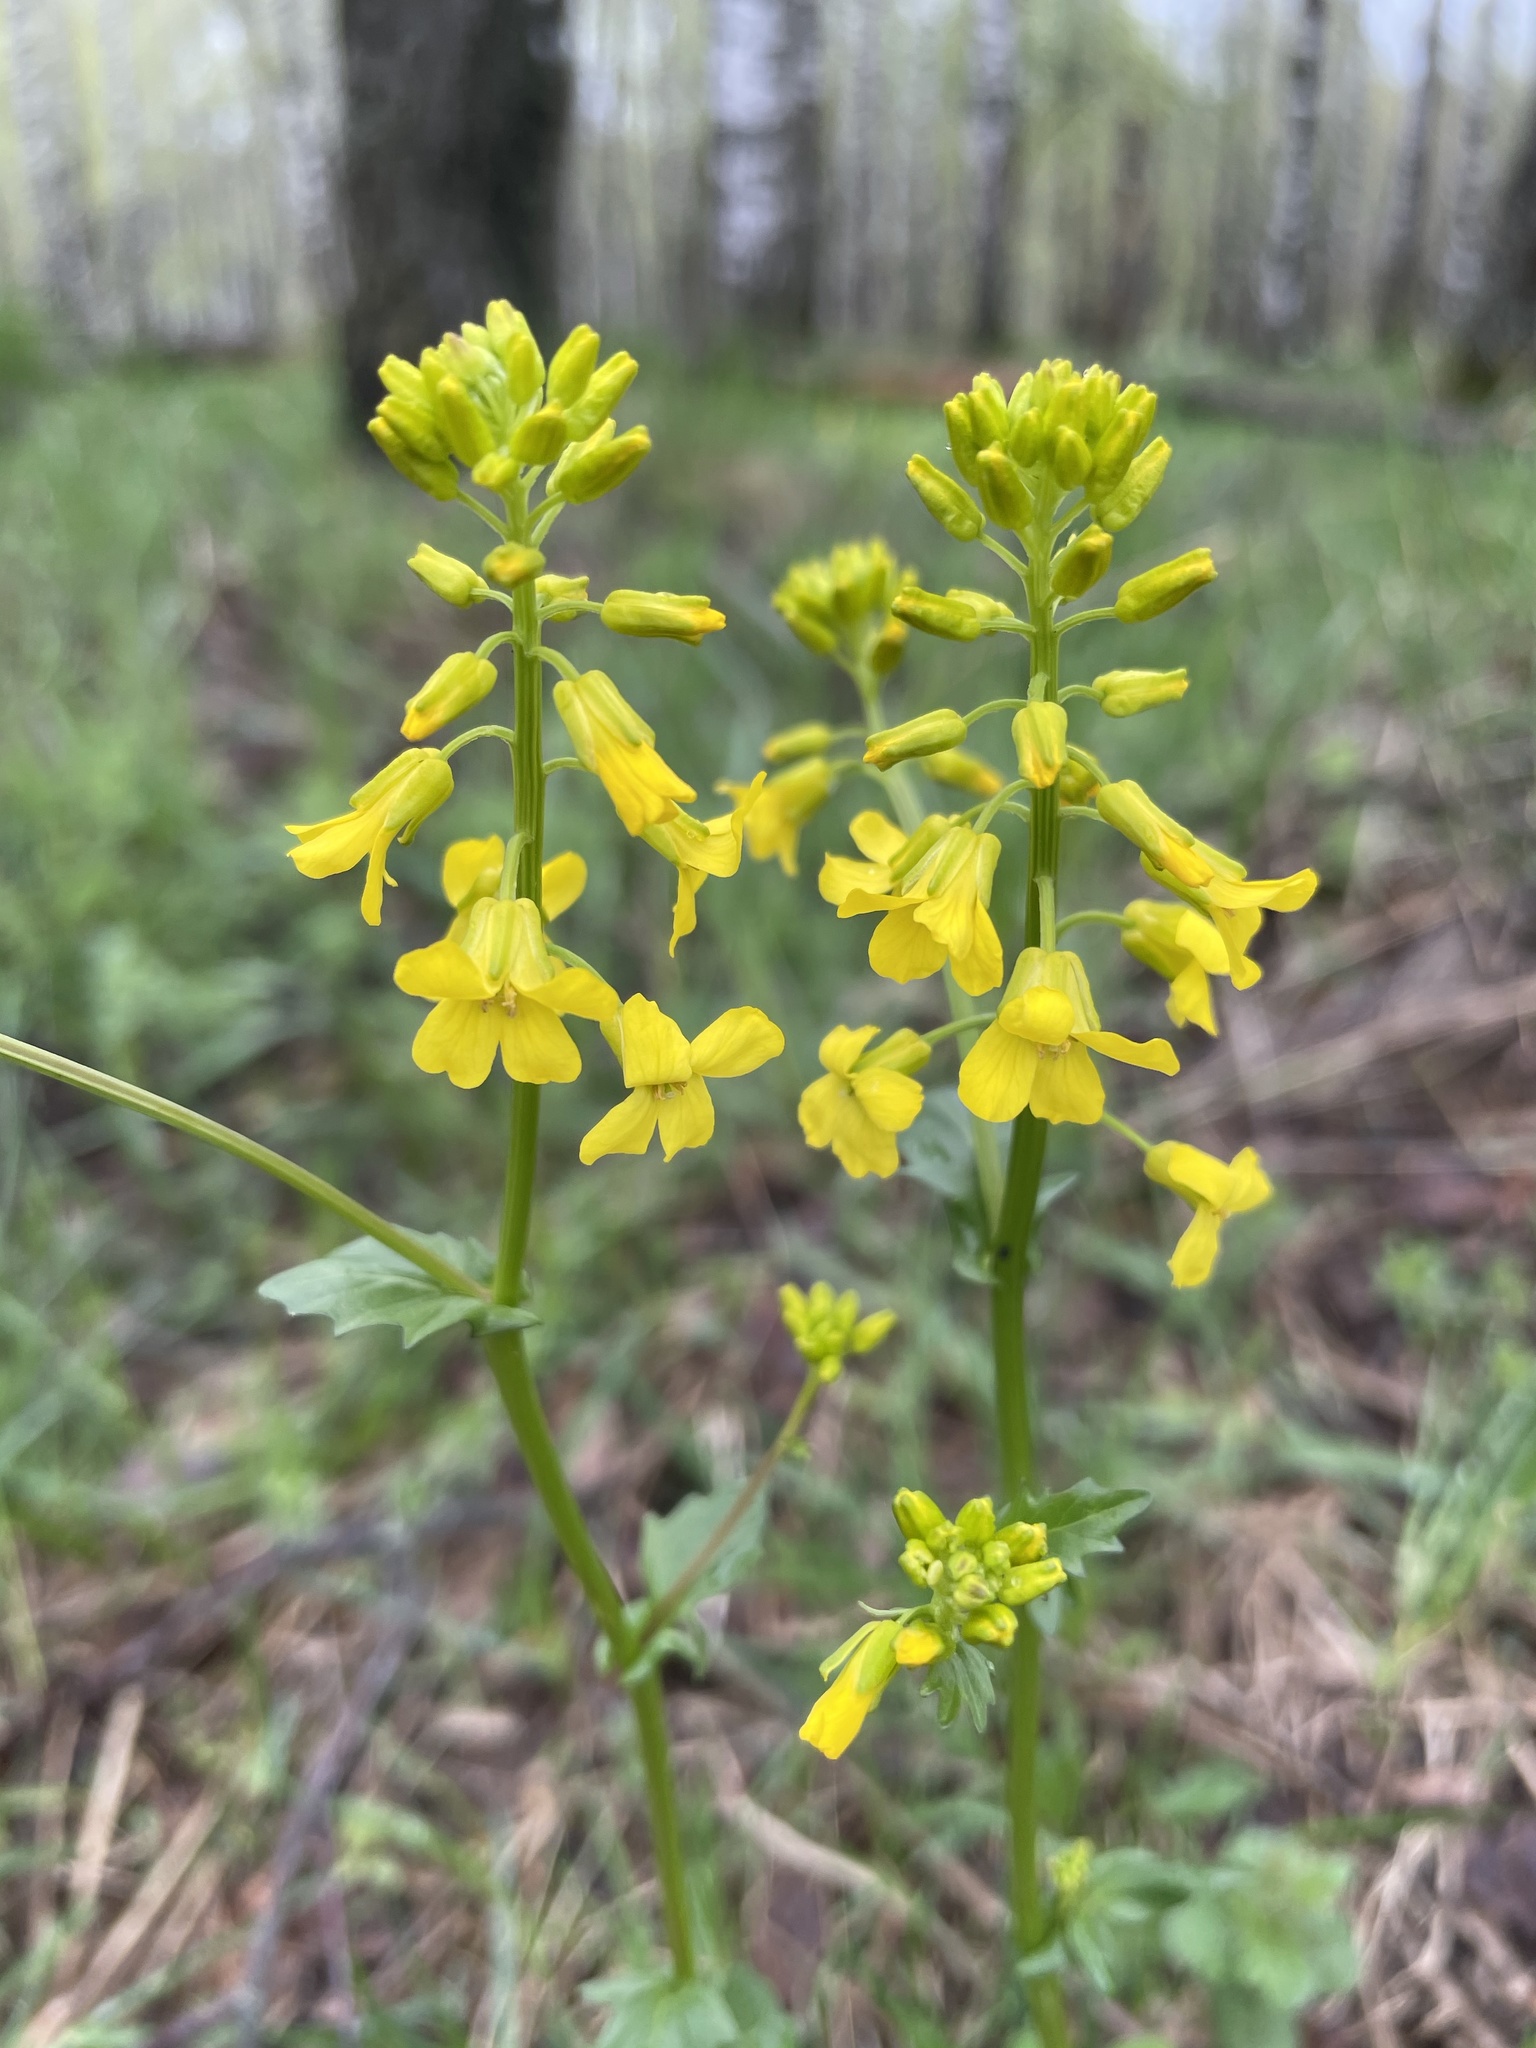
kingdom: Plantae
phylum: Tracheophyta
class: Magnoliopsida
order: Brassicales
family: Brassicaceae
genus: Barbarea
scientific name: Barbarea vulgaris
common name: Cressy-greens
